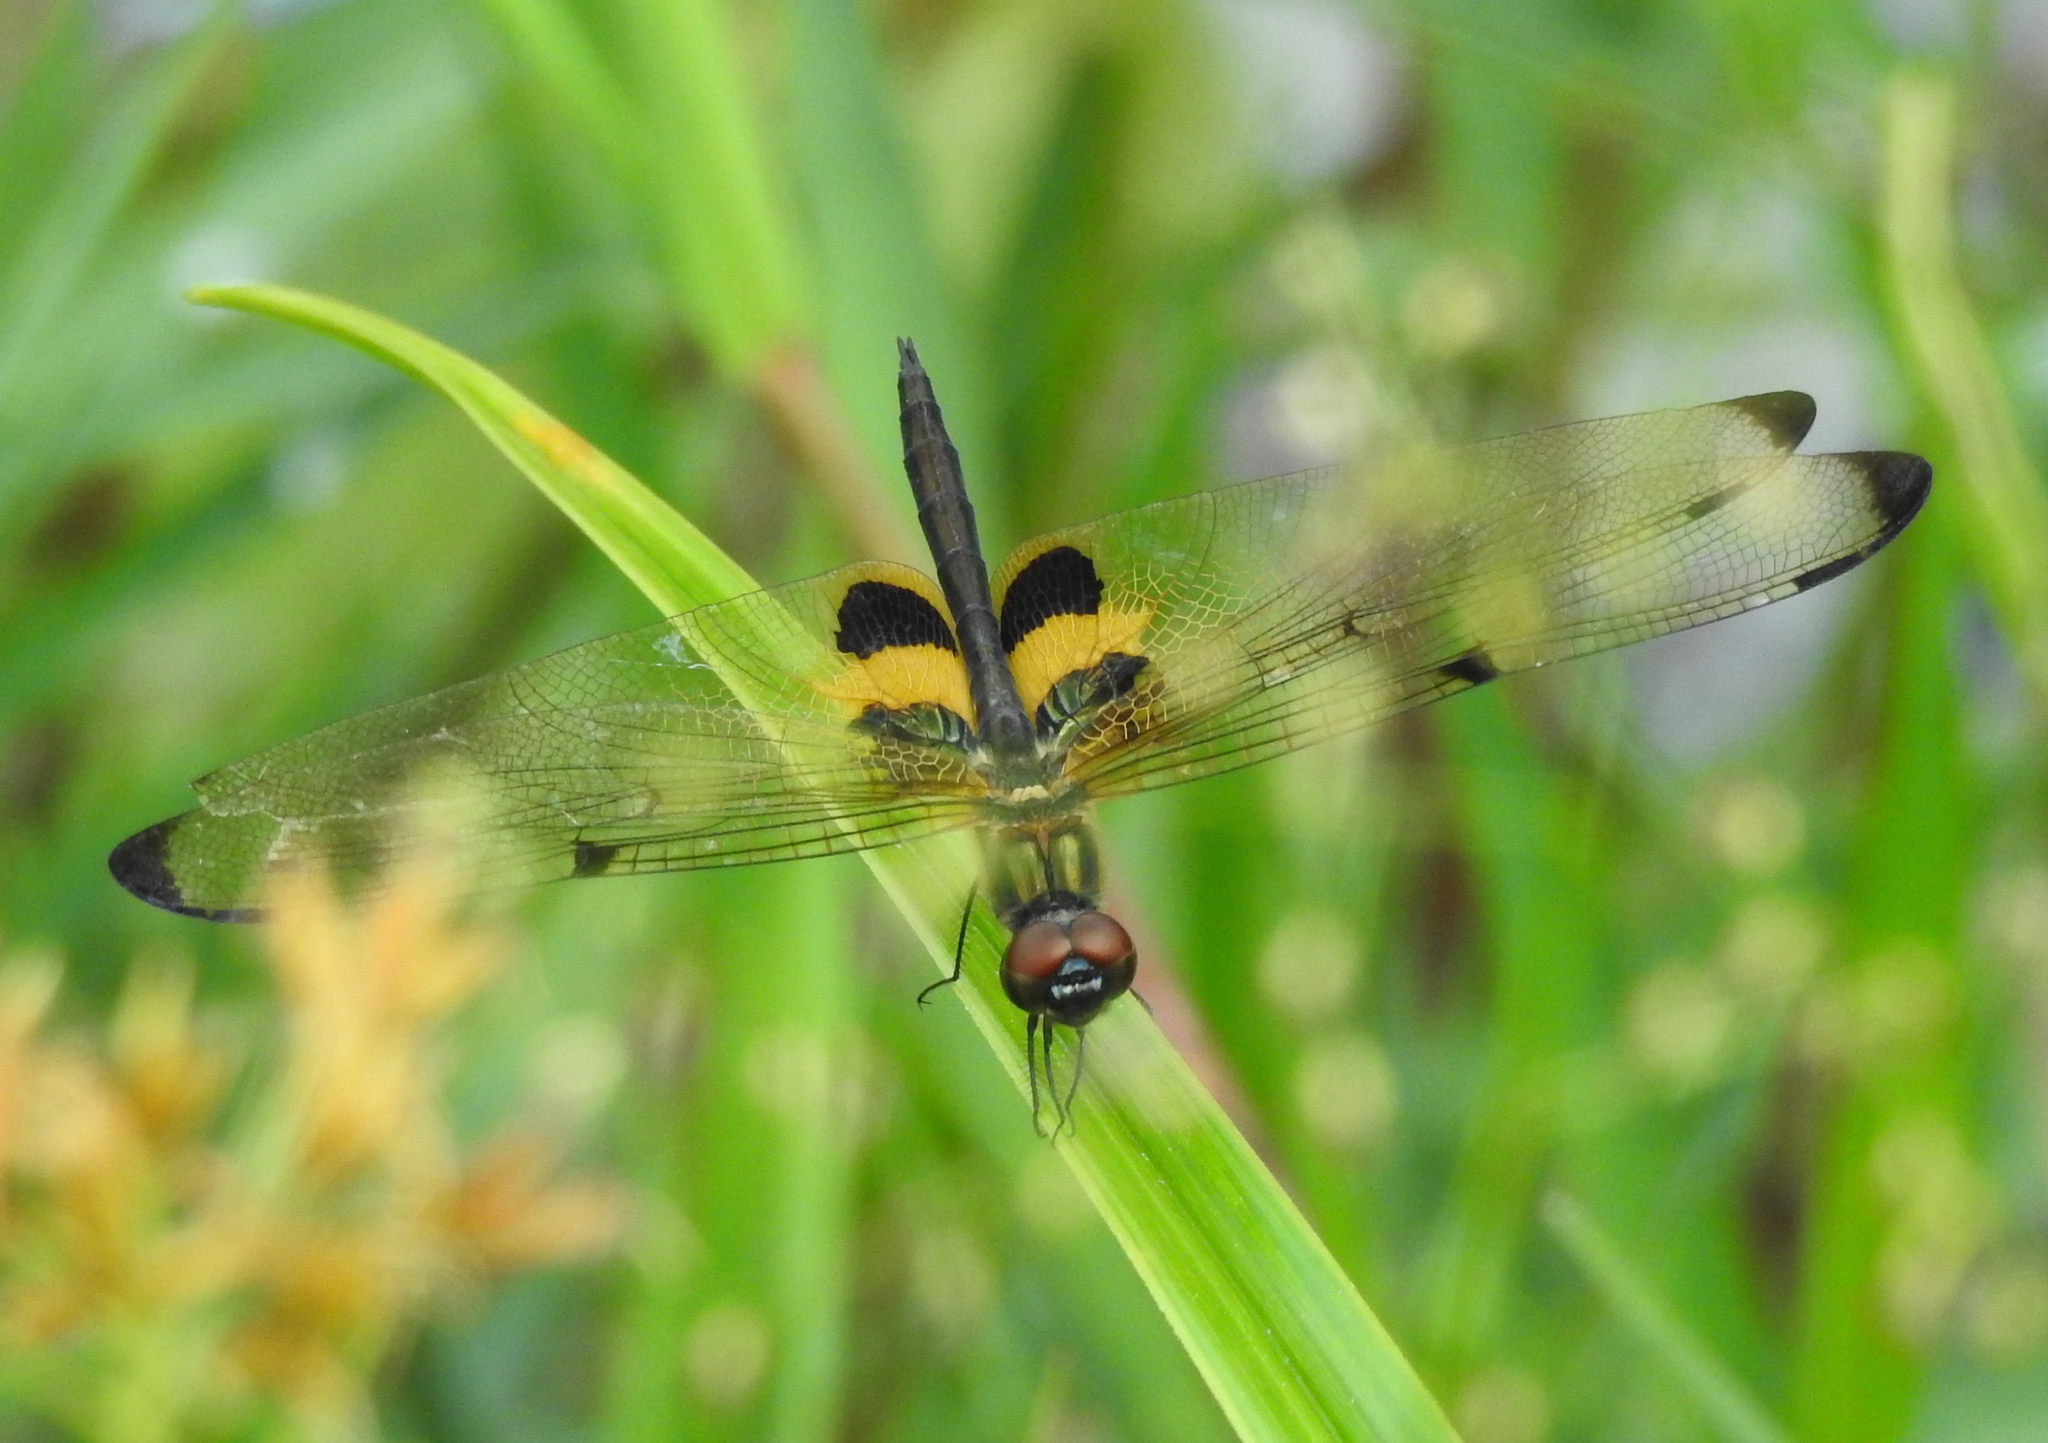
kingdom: Animalia
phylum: Arthropoda
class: Insecta
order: Odonata
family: Libellulidae
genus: Rhyothemis
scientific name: Rhyothemis phyllis
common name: Yellow-barred flutterer
